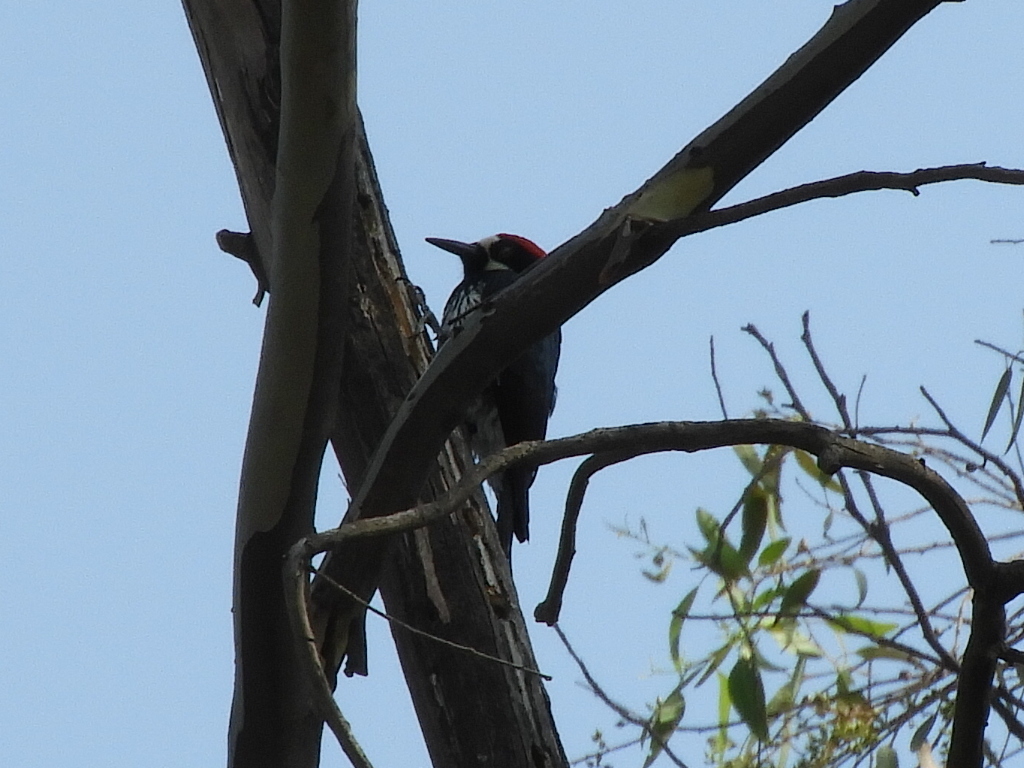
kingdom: Animalia
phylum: Chordata
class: Aves
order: Piciformes
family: Picidae
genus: Melanerpes
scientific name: Melanerpes formicivorus
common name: Acorn woodpecker
